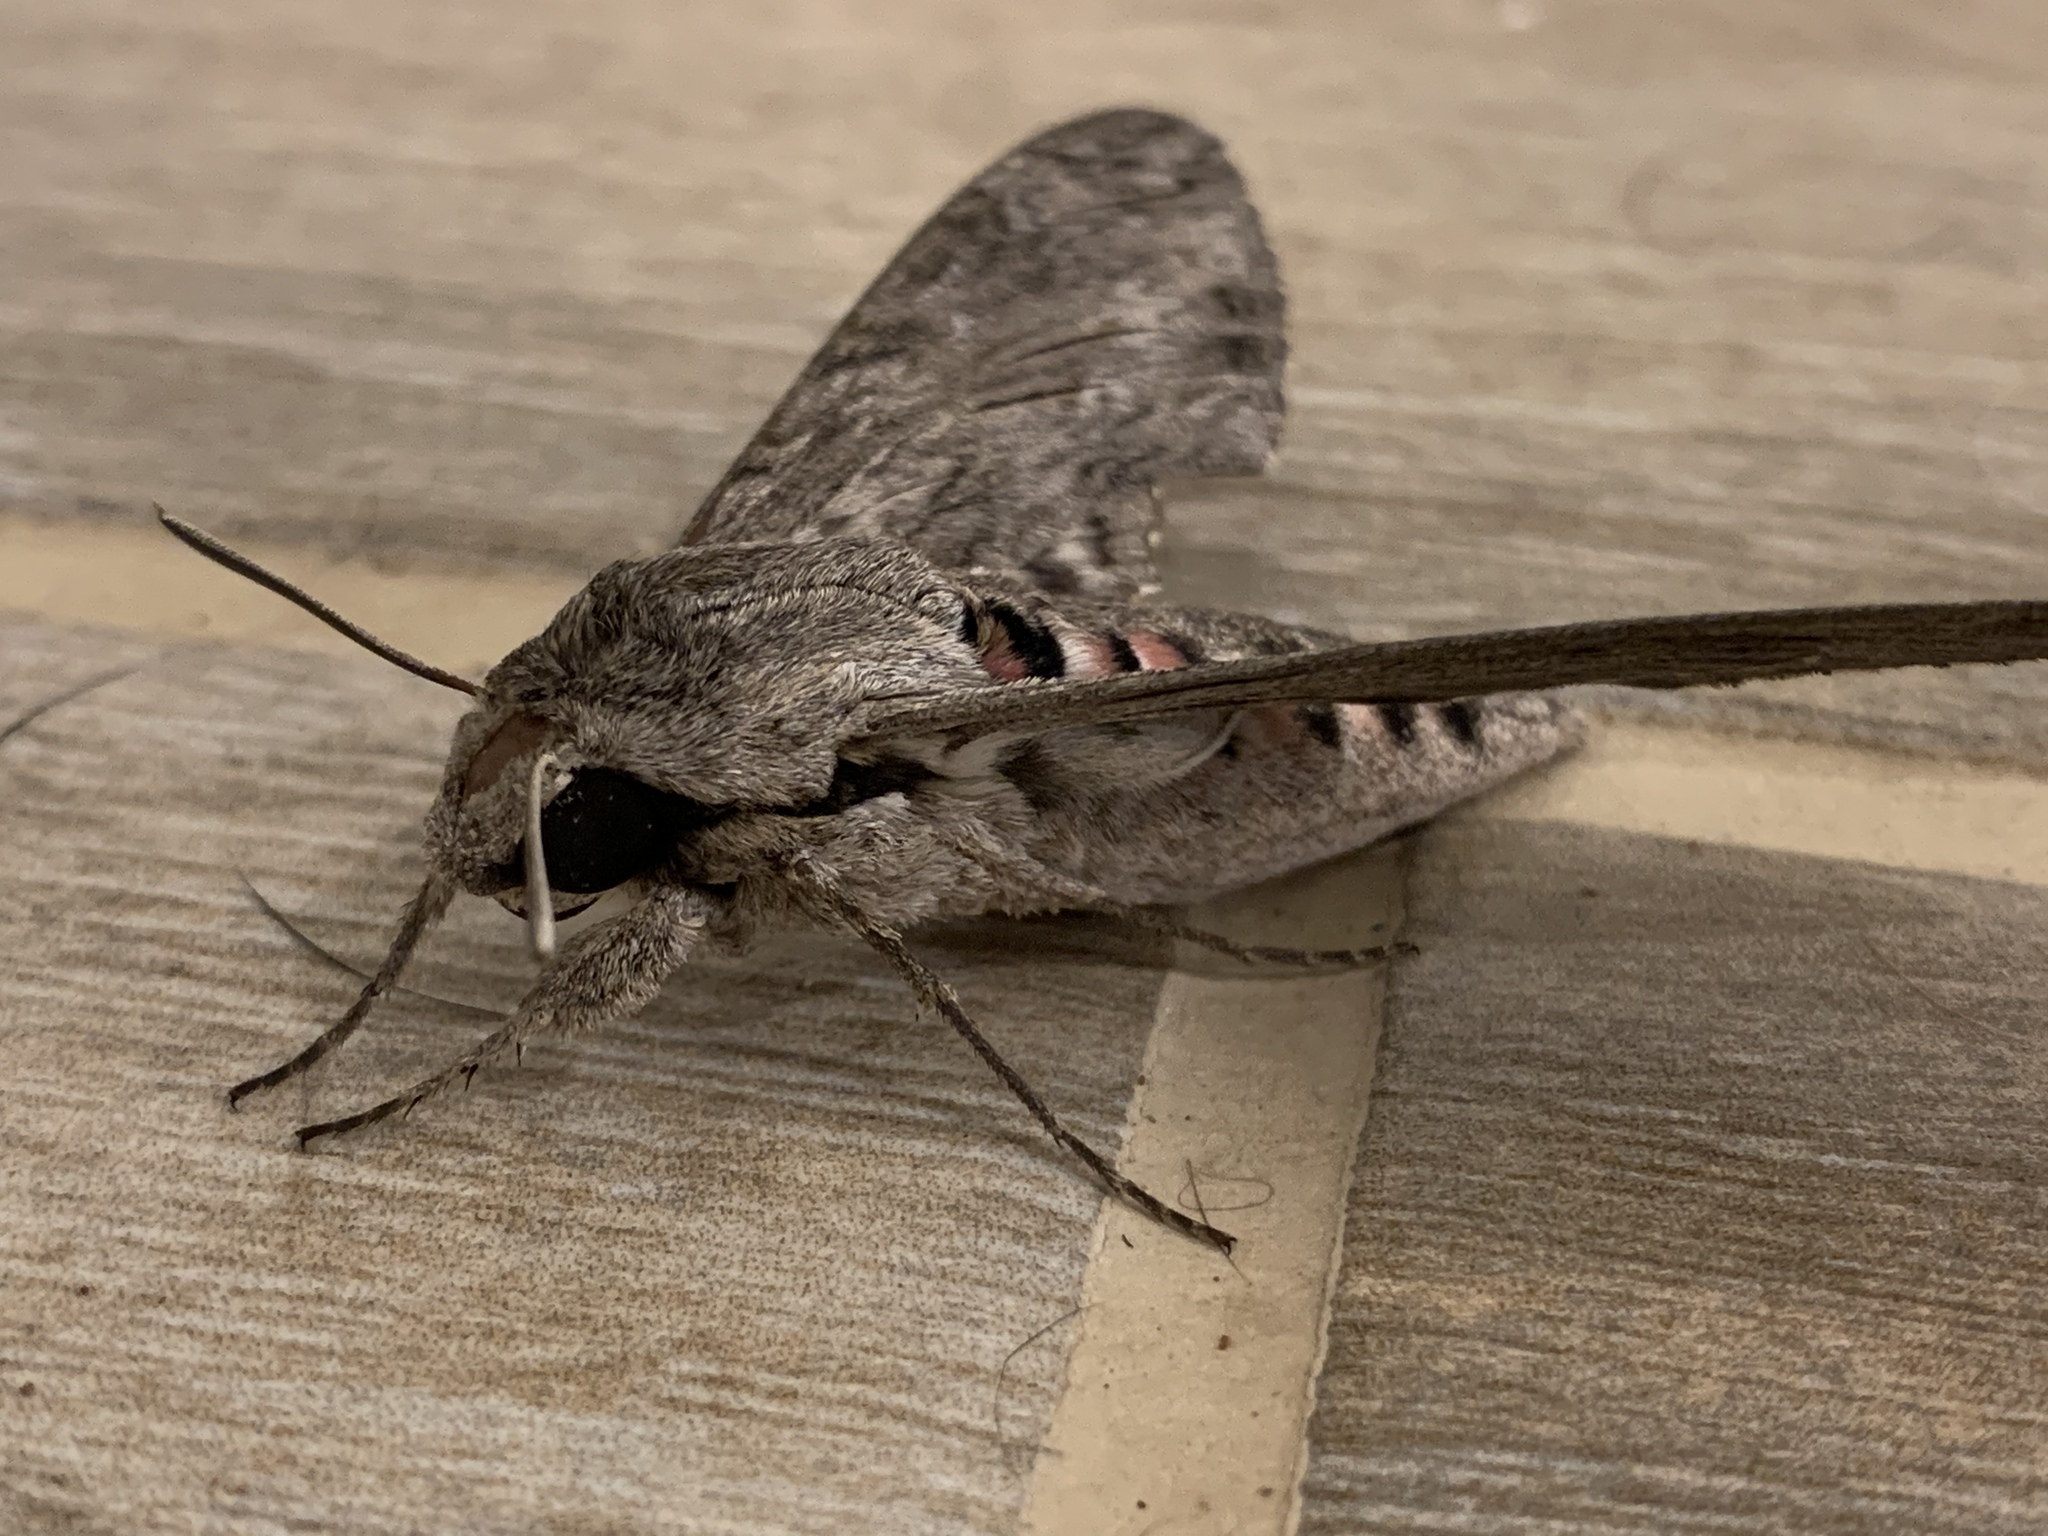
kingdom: Animalia
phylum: Arthropoda
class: Insecta
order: Lepidoptera
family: Sphingidae
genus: Agrius
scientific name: Agrius convolvuli
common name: Convolvulus hawkmoth
